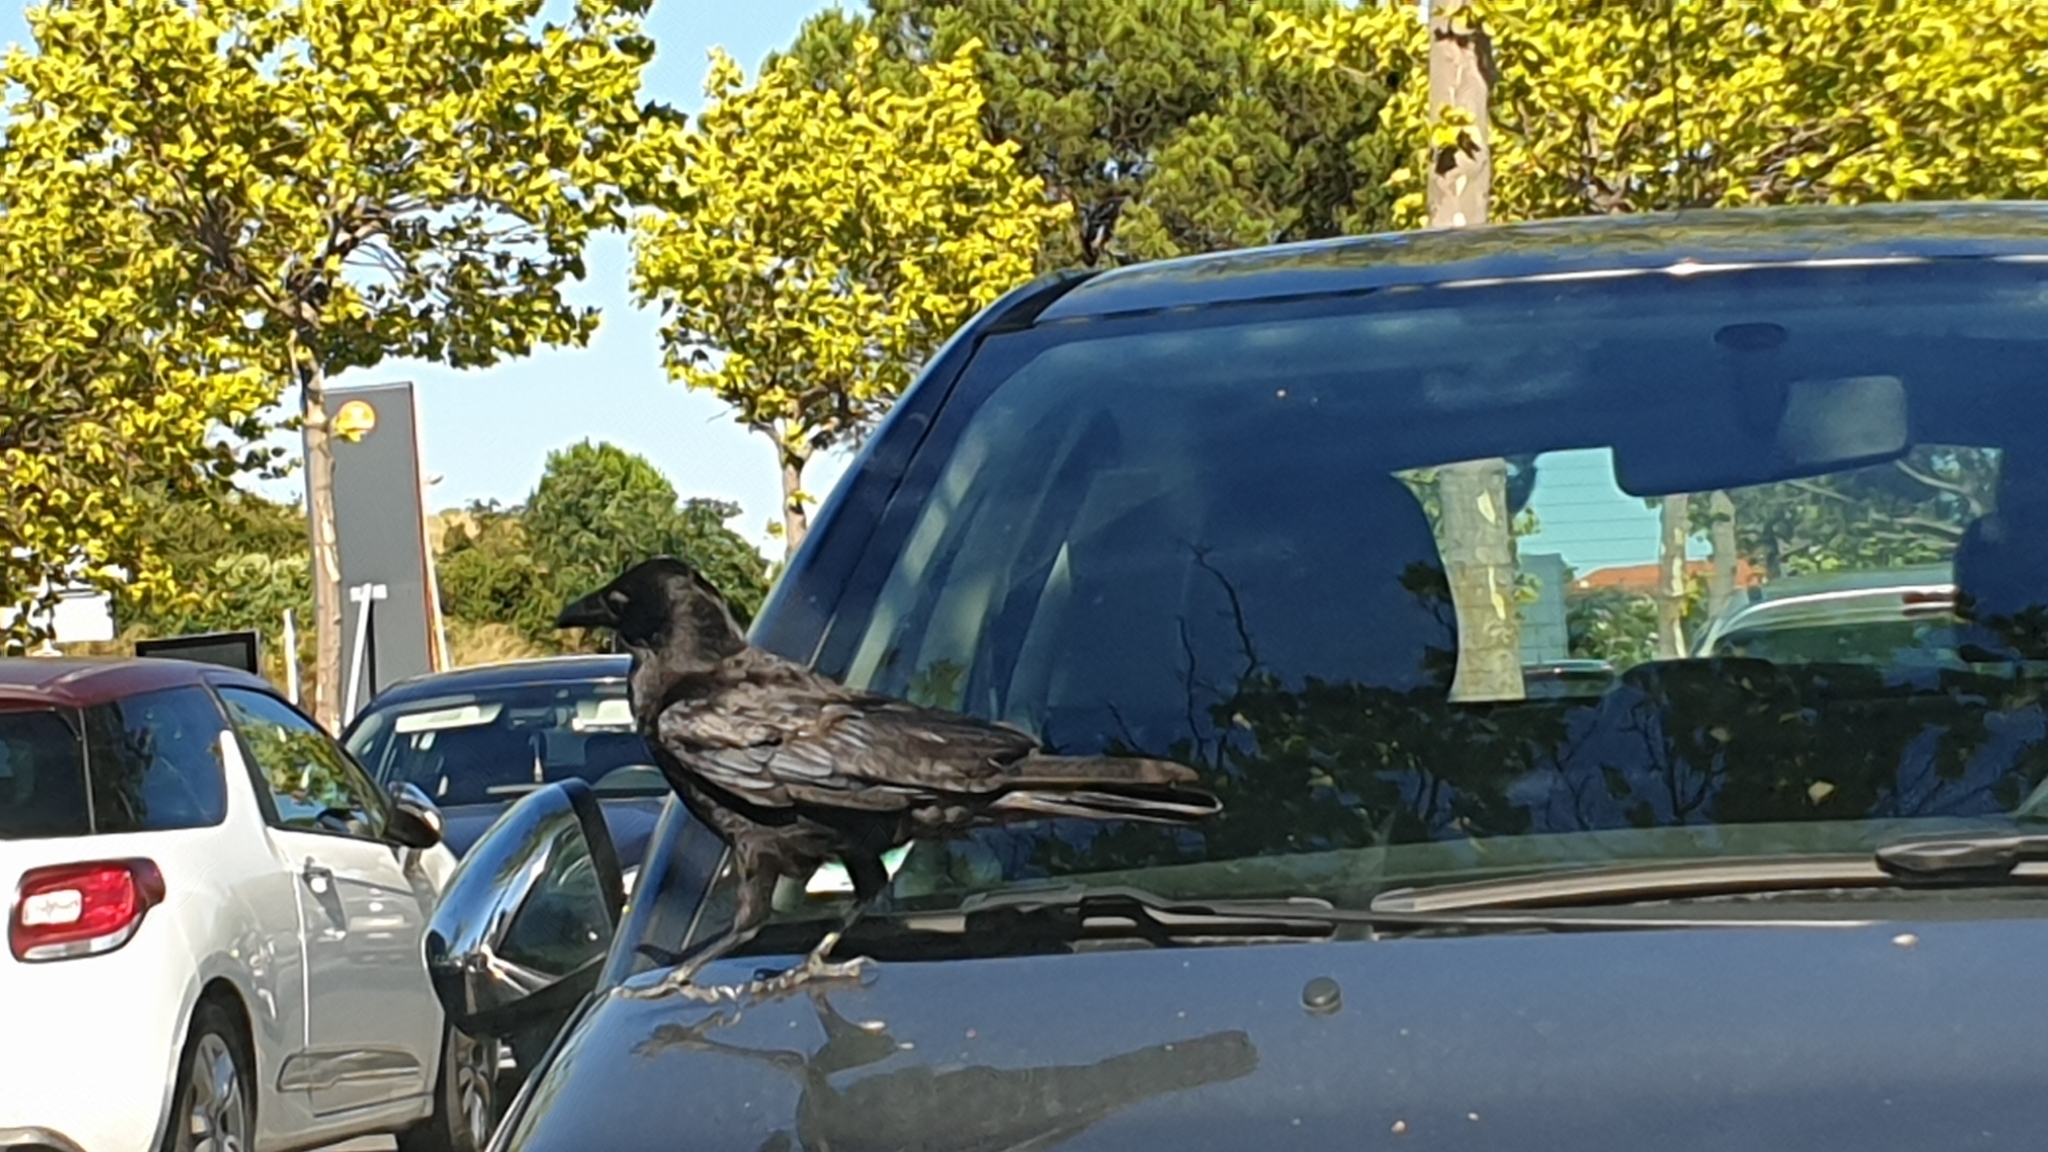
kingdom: Animalia
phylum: Chordata
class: Aves
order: Passeriformes
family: Corvidae
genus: Corvus
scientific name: Corvus corone
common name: Carrion crow
